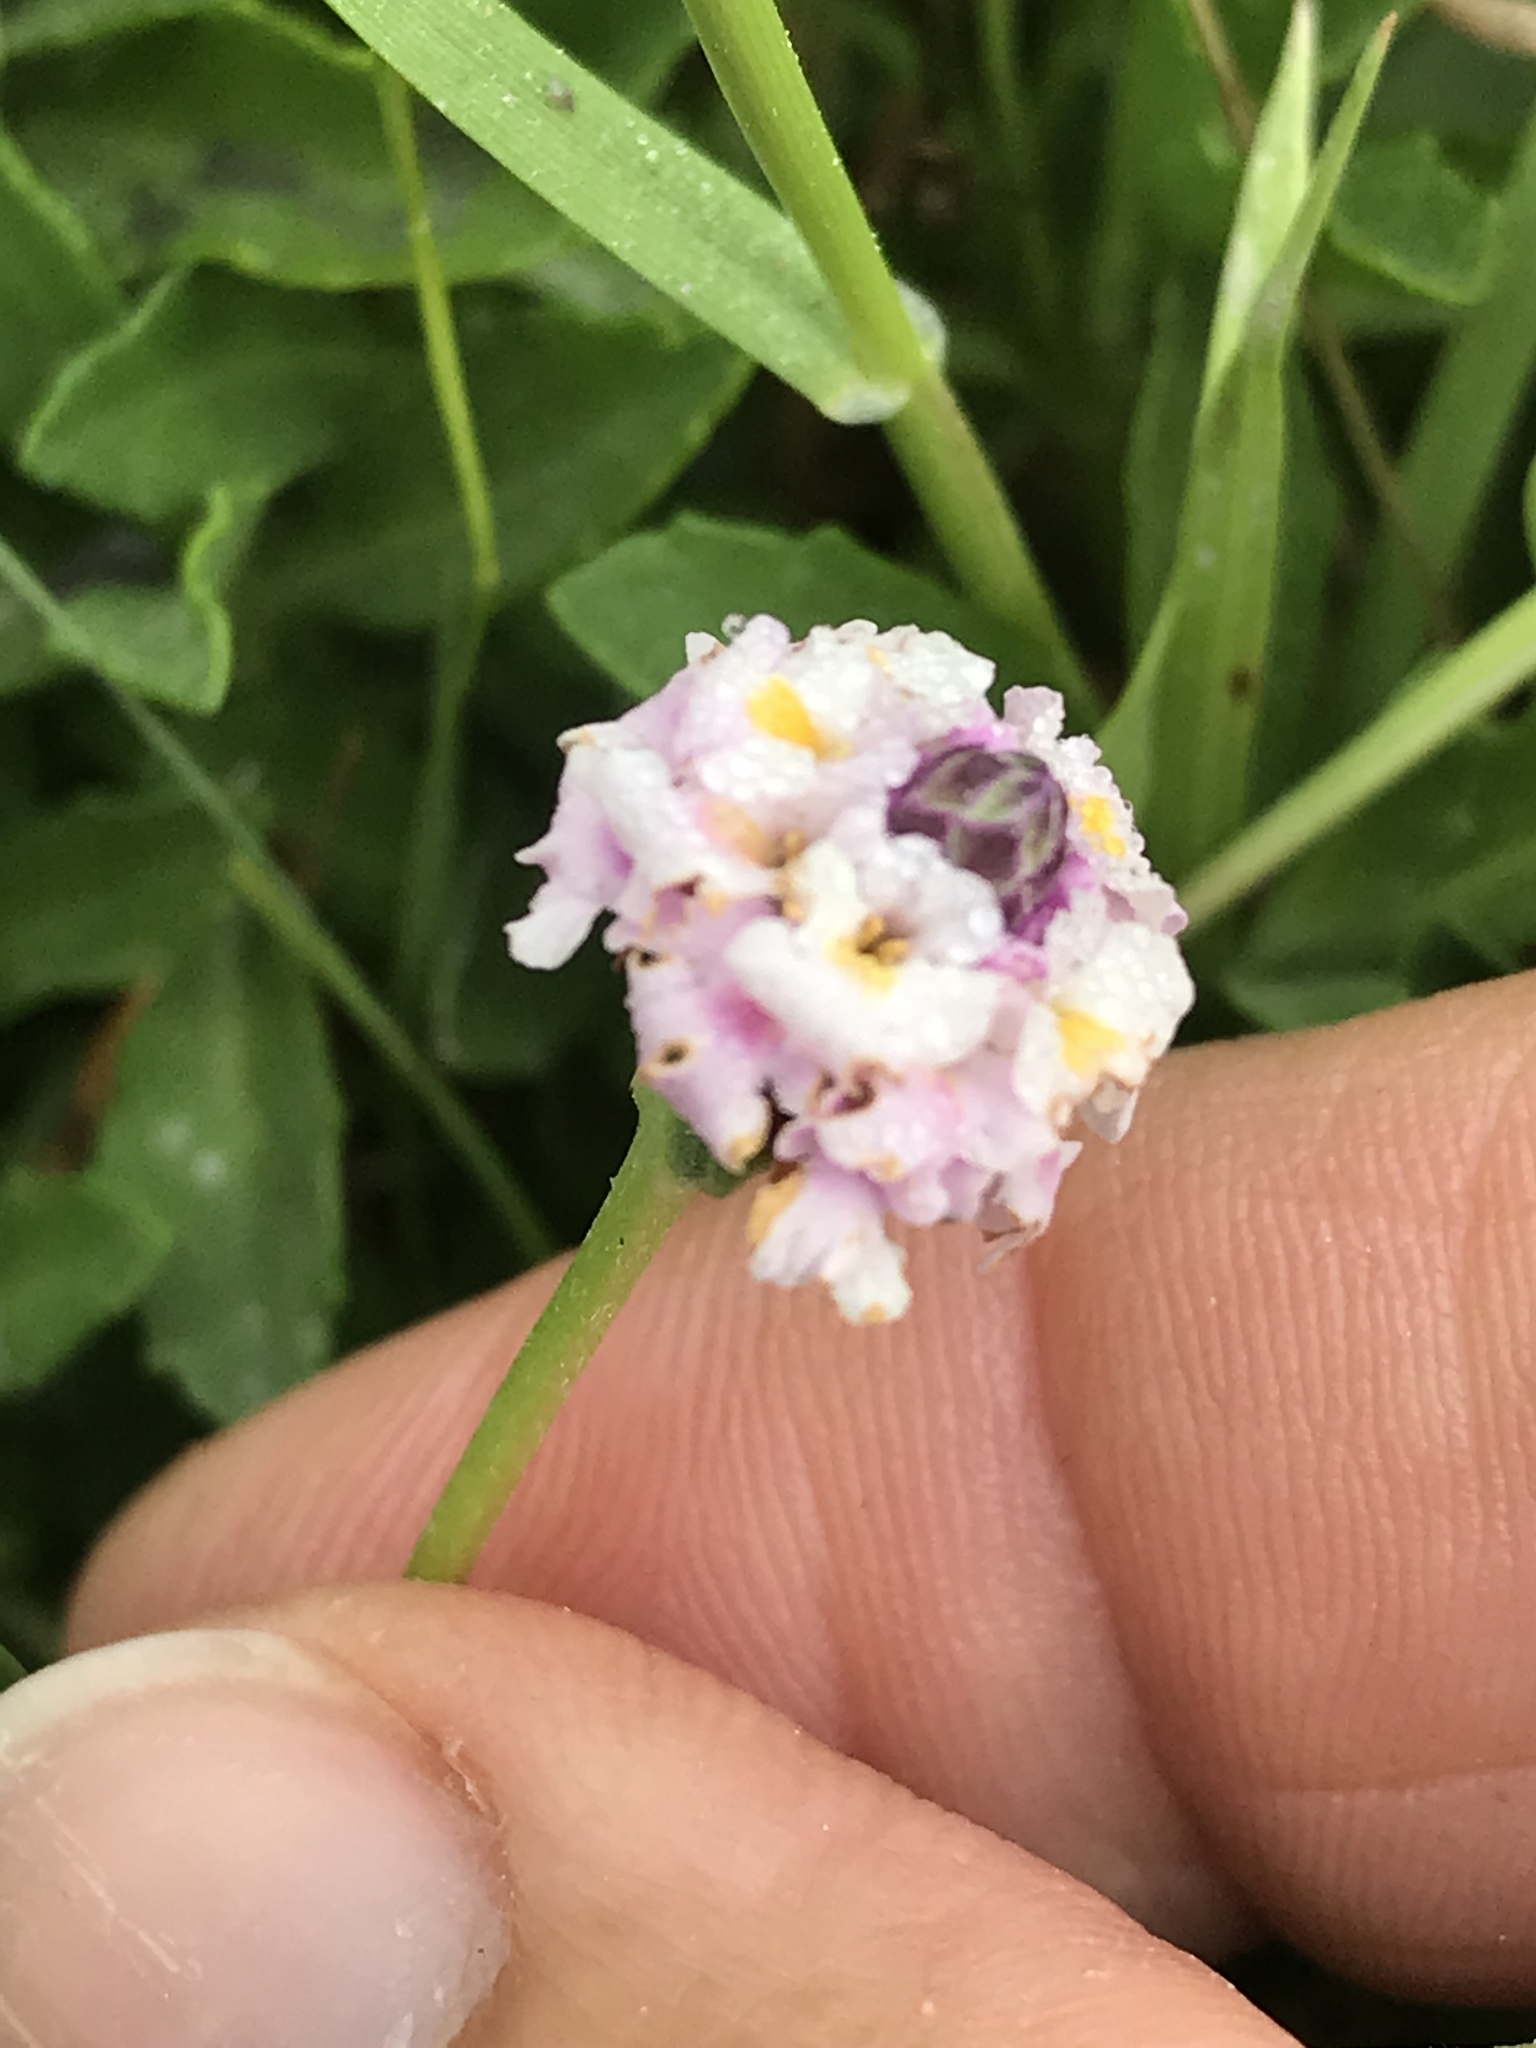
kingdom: Plantae
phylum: Tracheophyta
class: Magnoliopsida
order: Lamiales
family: Verbenaceae
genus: Phyla
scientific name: Phyla nodiflora
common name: Frogfruit
